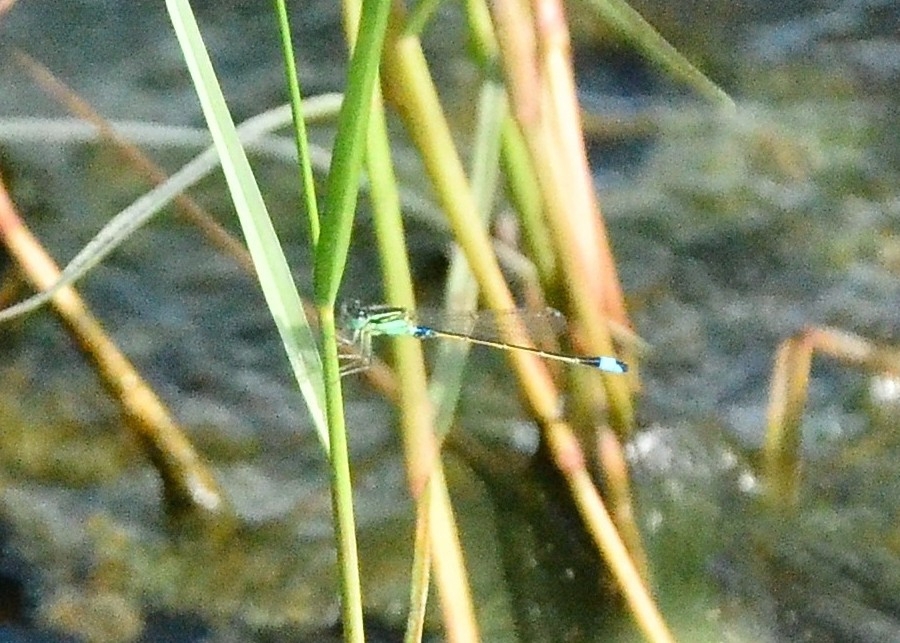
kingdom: Animalia
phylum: Arthropoda
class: Insecta
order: Odonata
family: Coenagrionidae
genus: Ischnura
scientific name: Ischnura senegalensis
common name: Tropical bluetail
